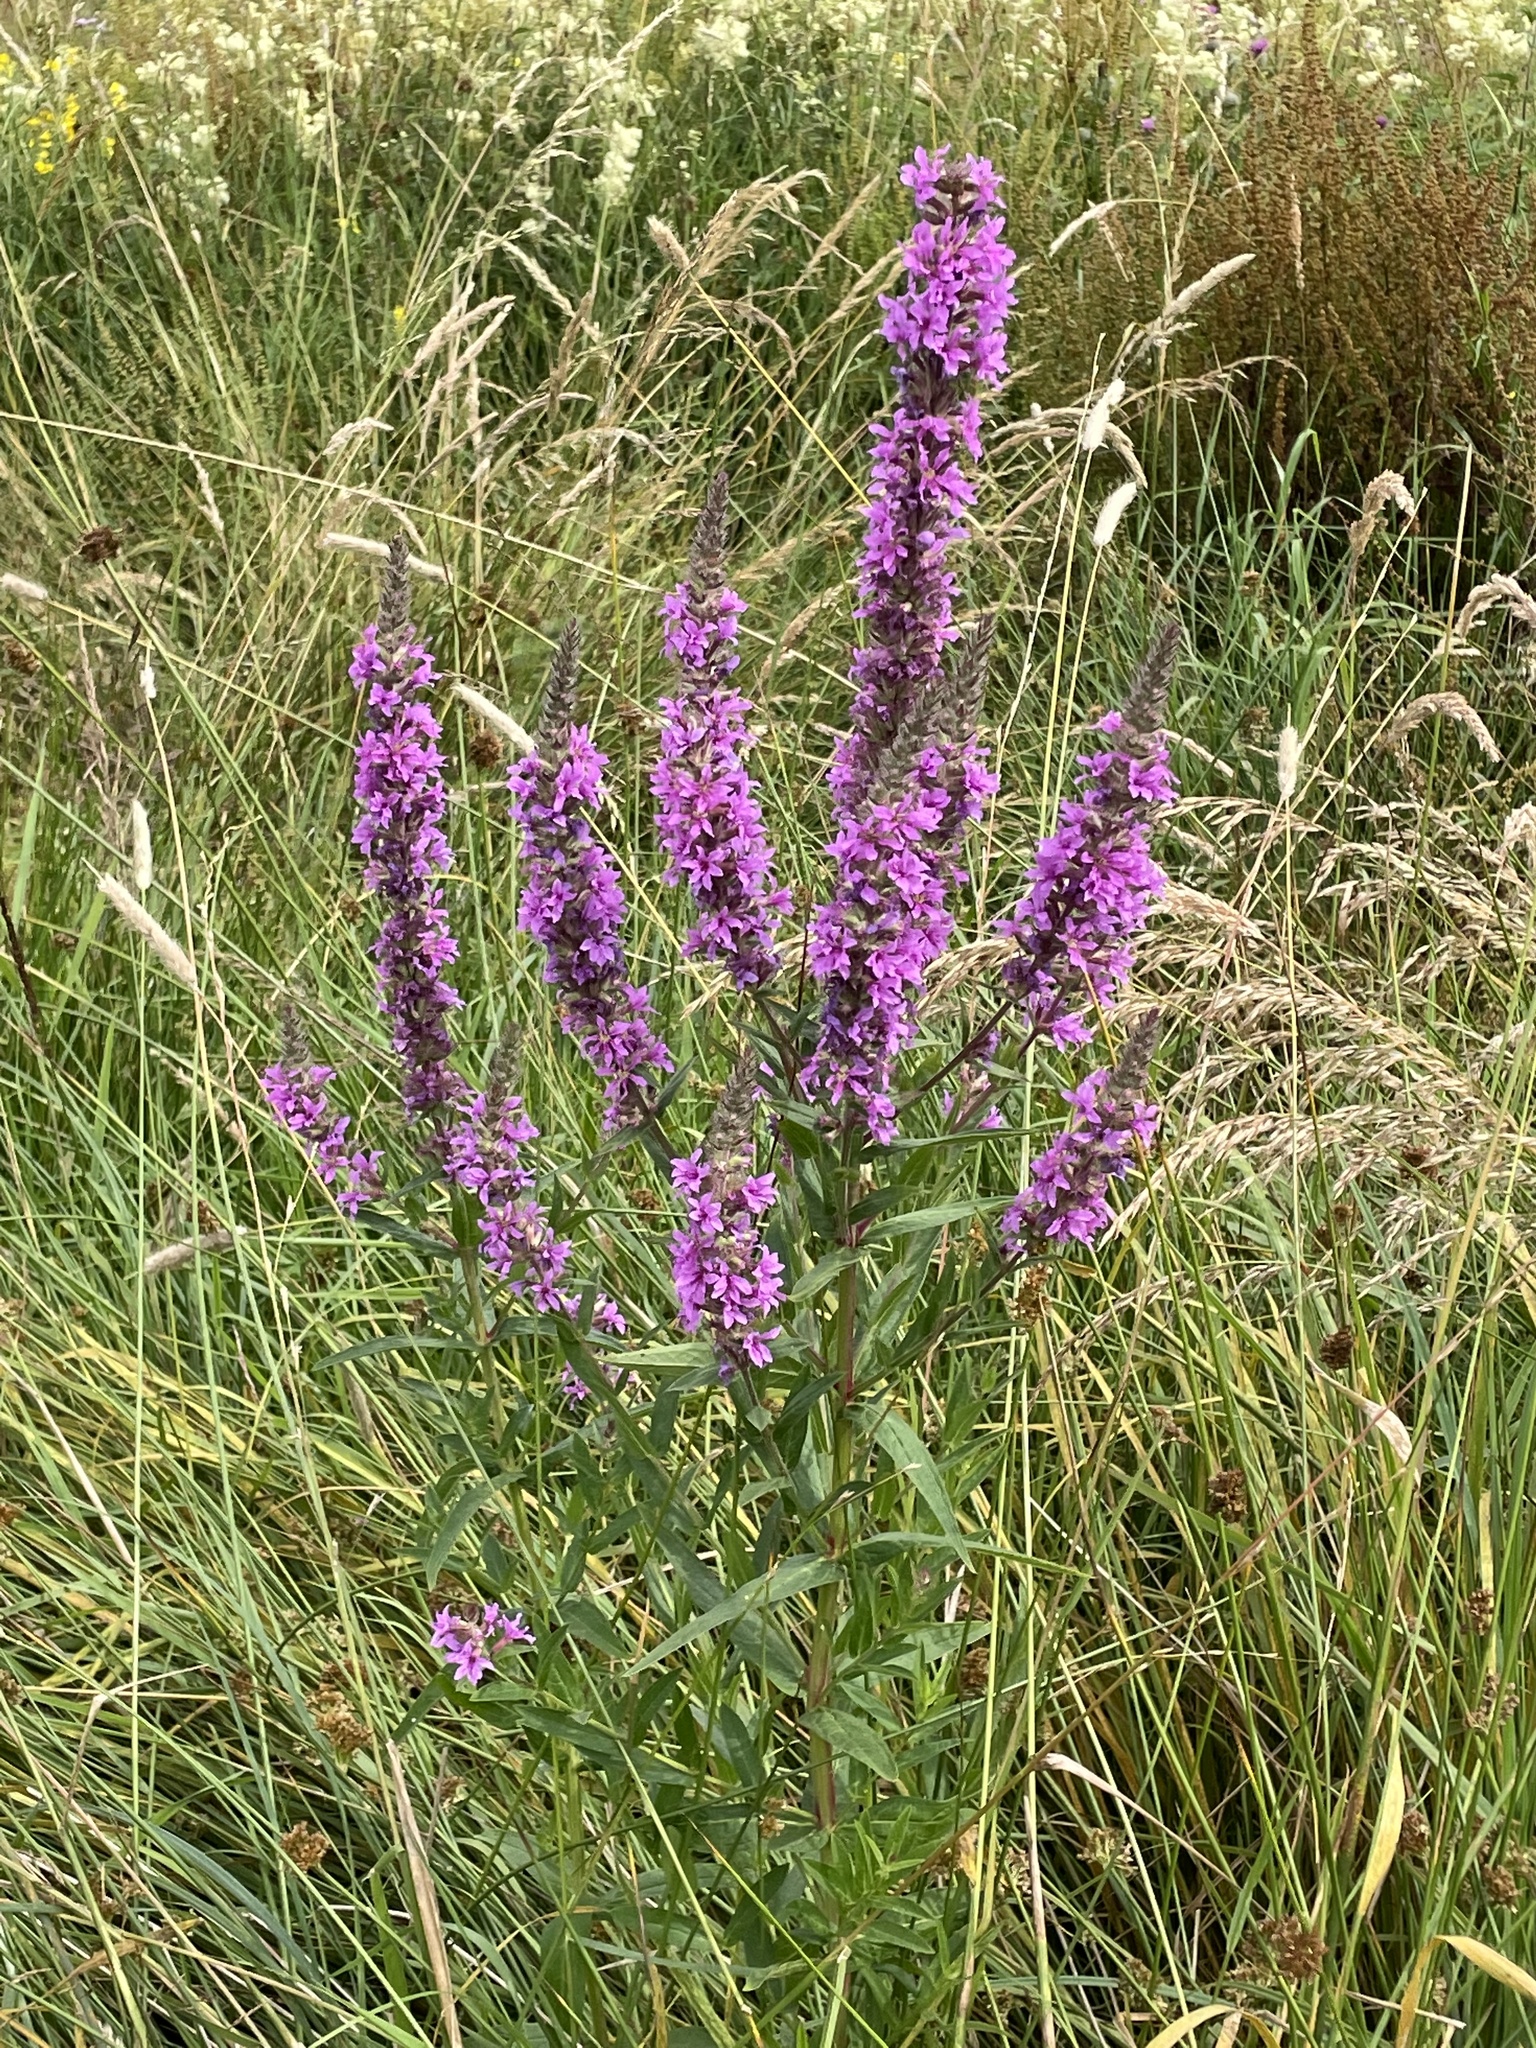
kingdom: Plantae
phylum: Tracheophyta
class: Magnoliopsida
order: Myrtales
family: Lythraceae
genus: Lythrum
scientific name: Lythrum salicaria
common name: Purple loosestrife
